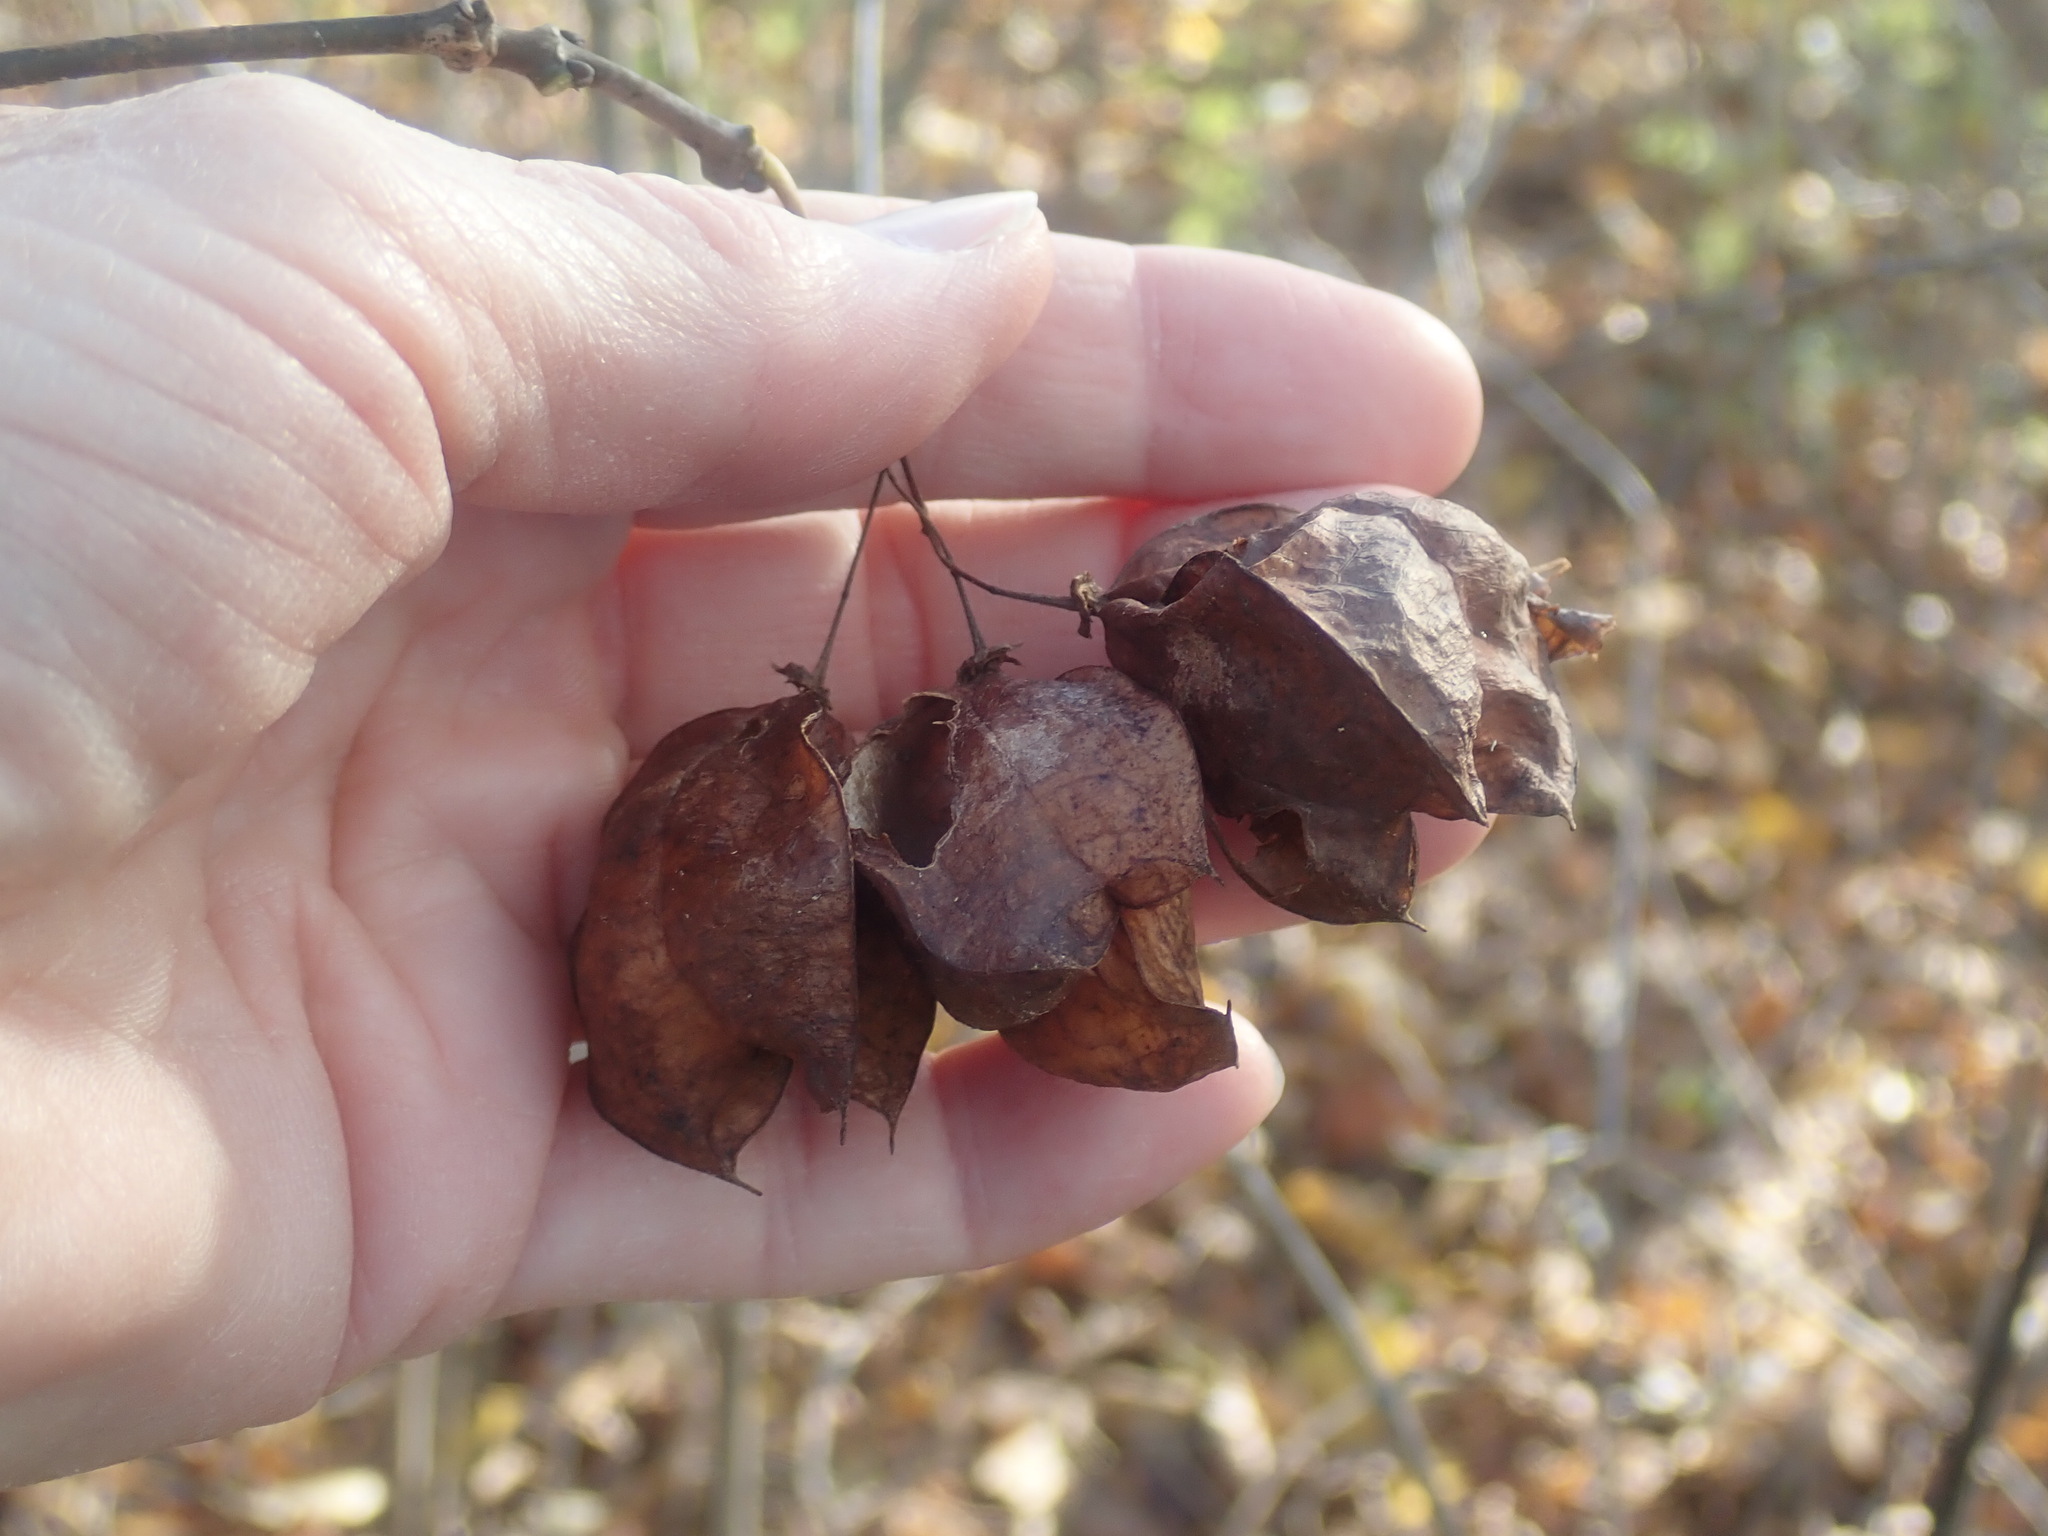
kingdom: Plantae
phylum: Tracheophyta
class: Magnoliopsida
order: Crossosomatales
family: Staphyleaceae
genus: Staphylea
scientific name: Staphylea trifolia
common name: American bladdernut
